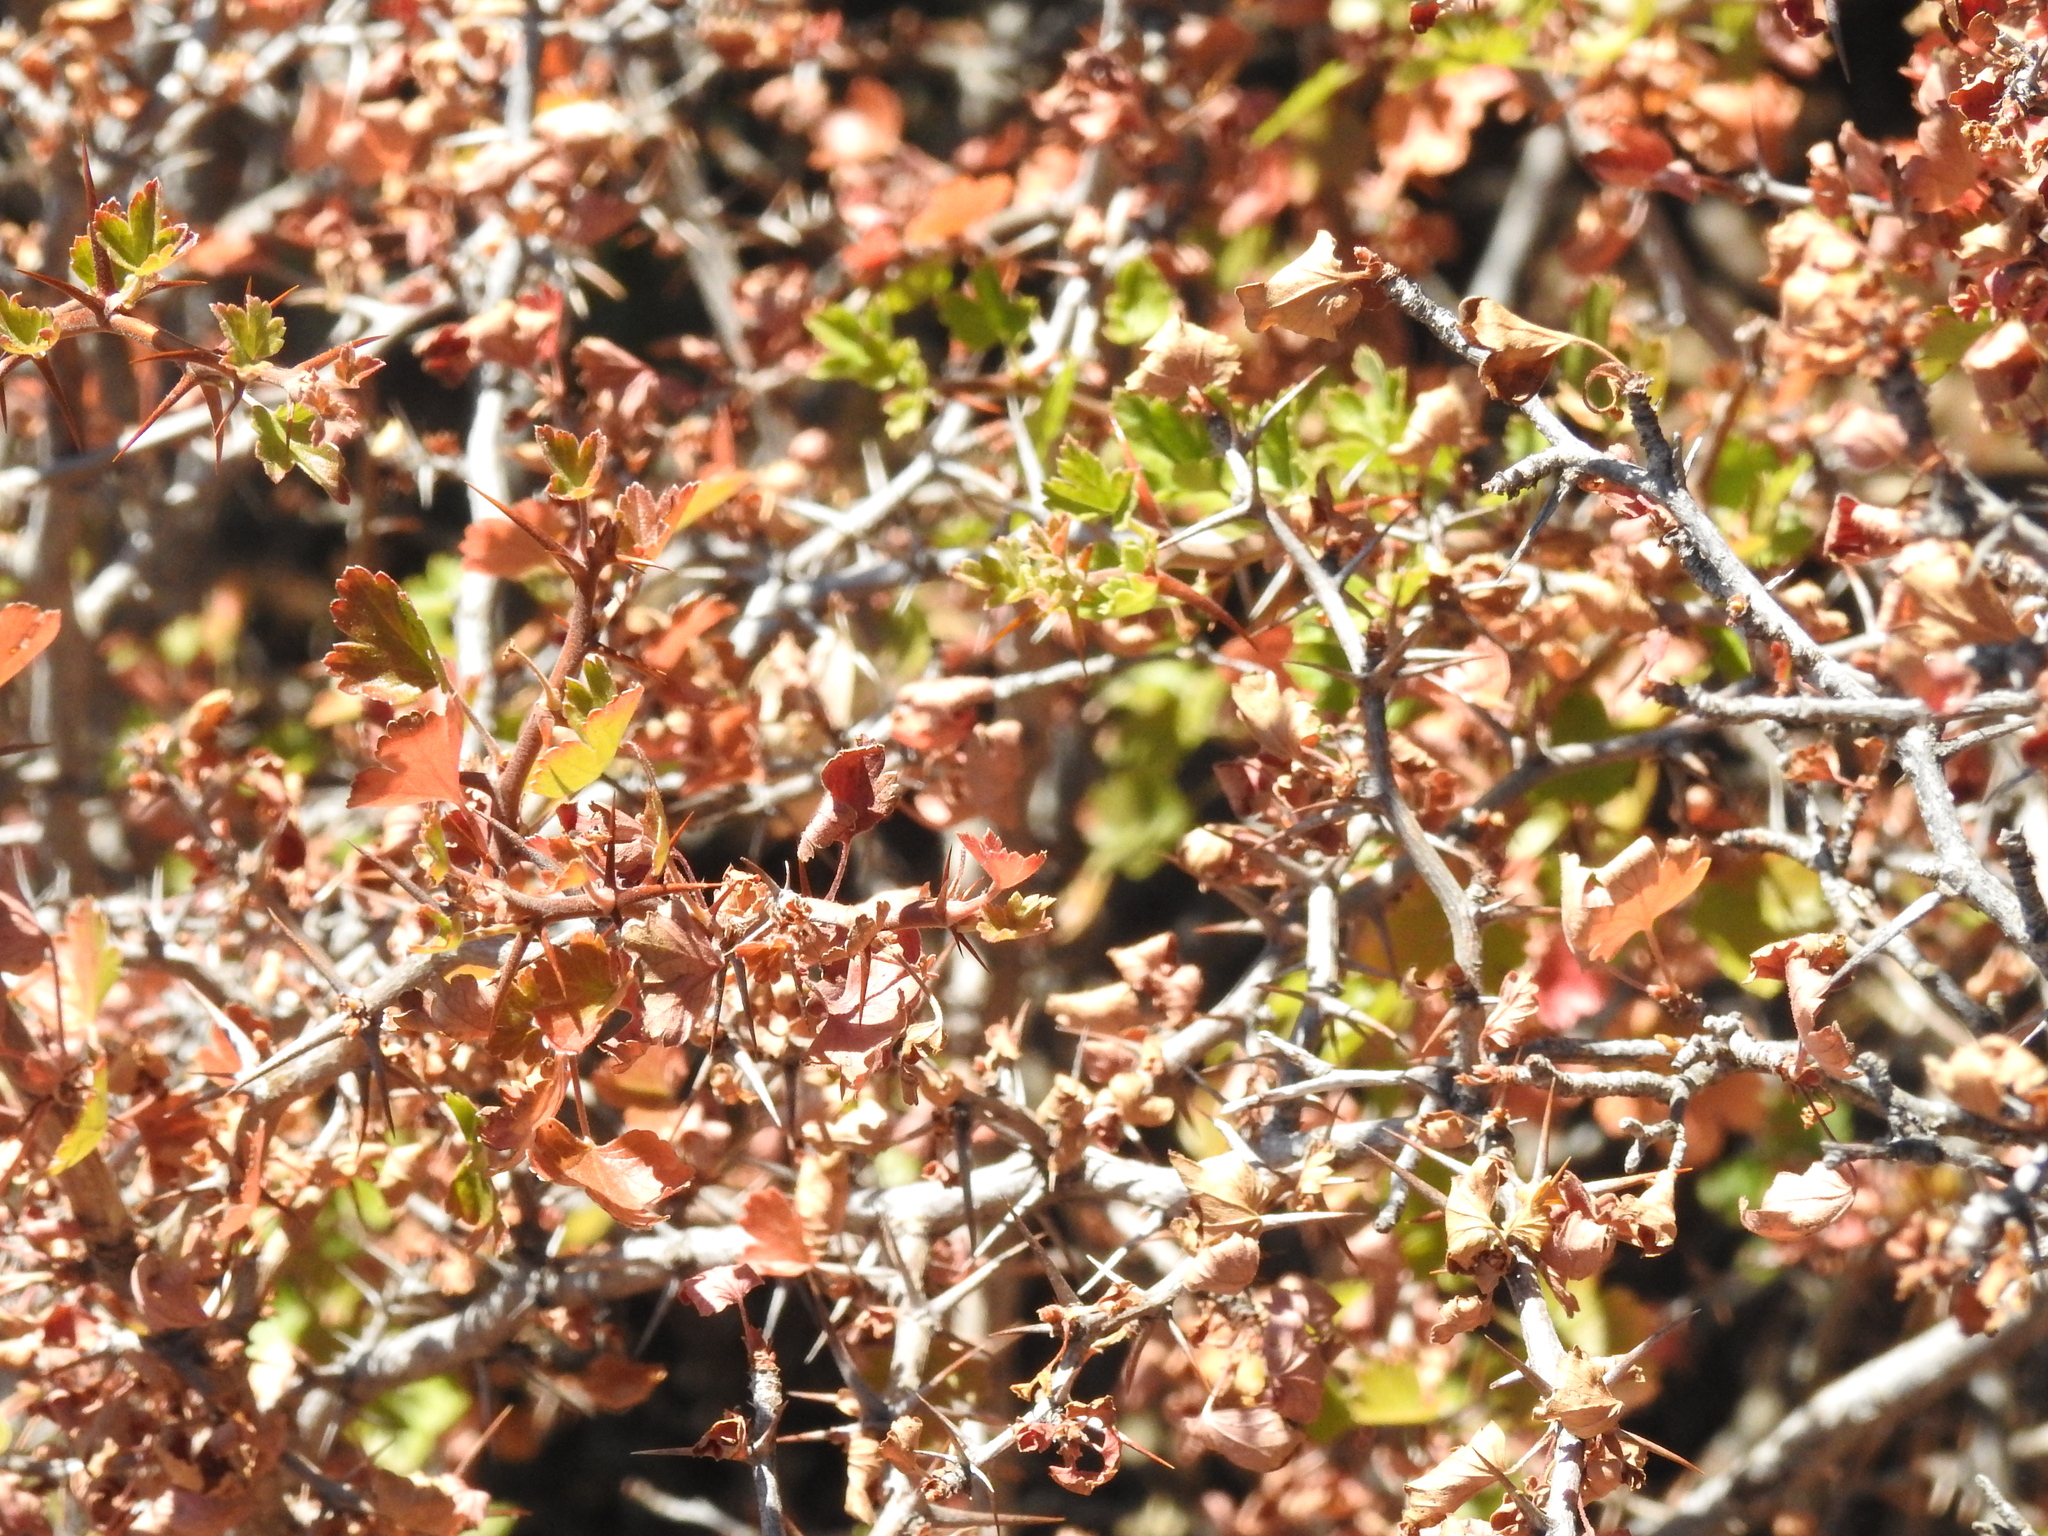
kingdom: Plantae
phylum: Tracheophyta
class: Magnoliopsida
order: Saxifragales
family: Grossulariaceae
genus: Ribes
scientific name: Ribes californicum
